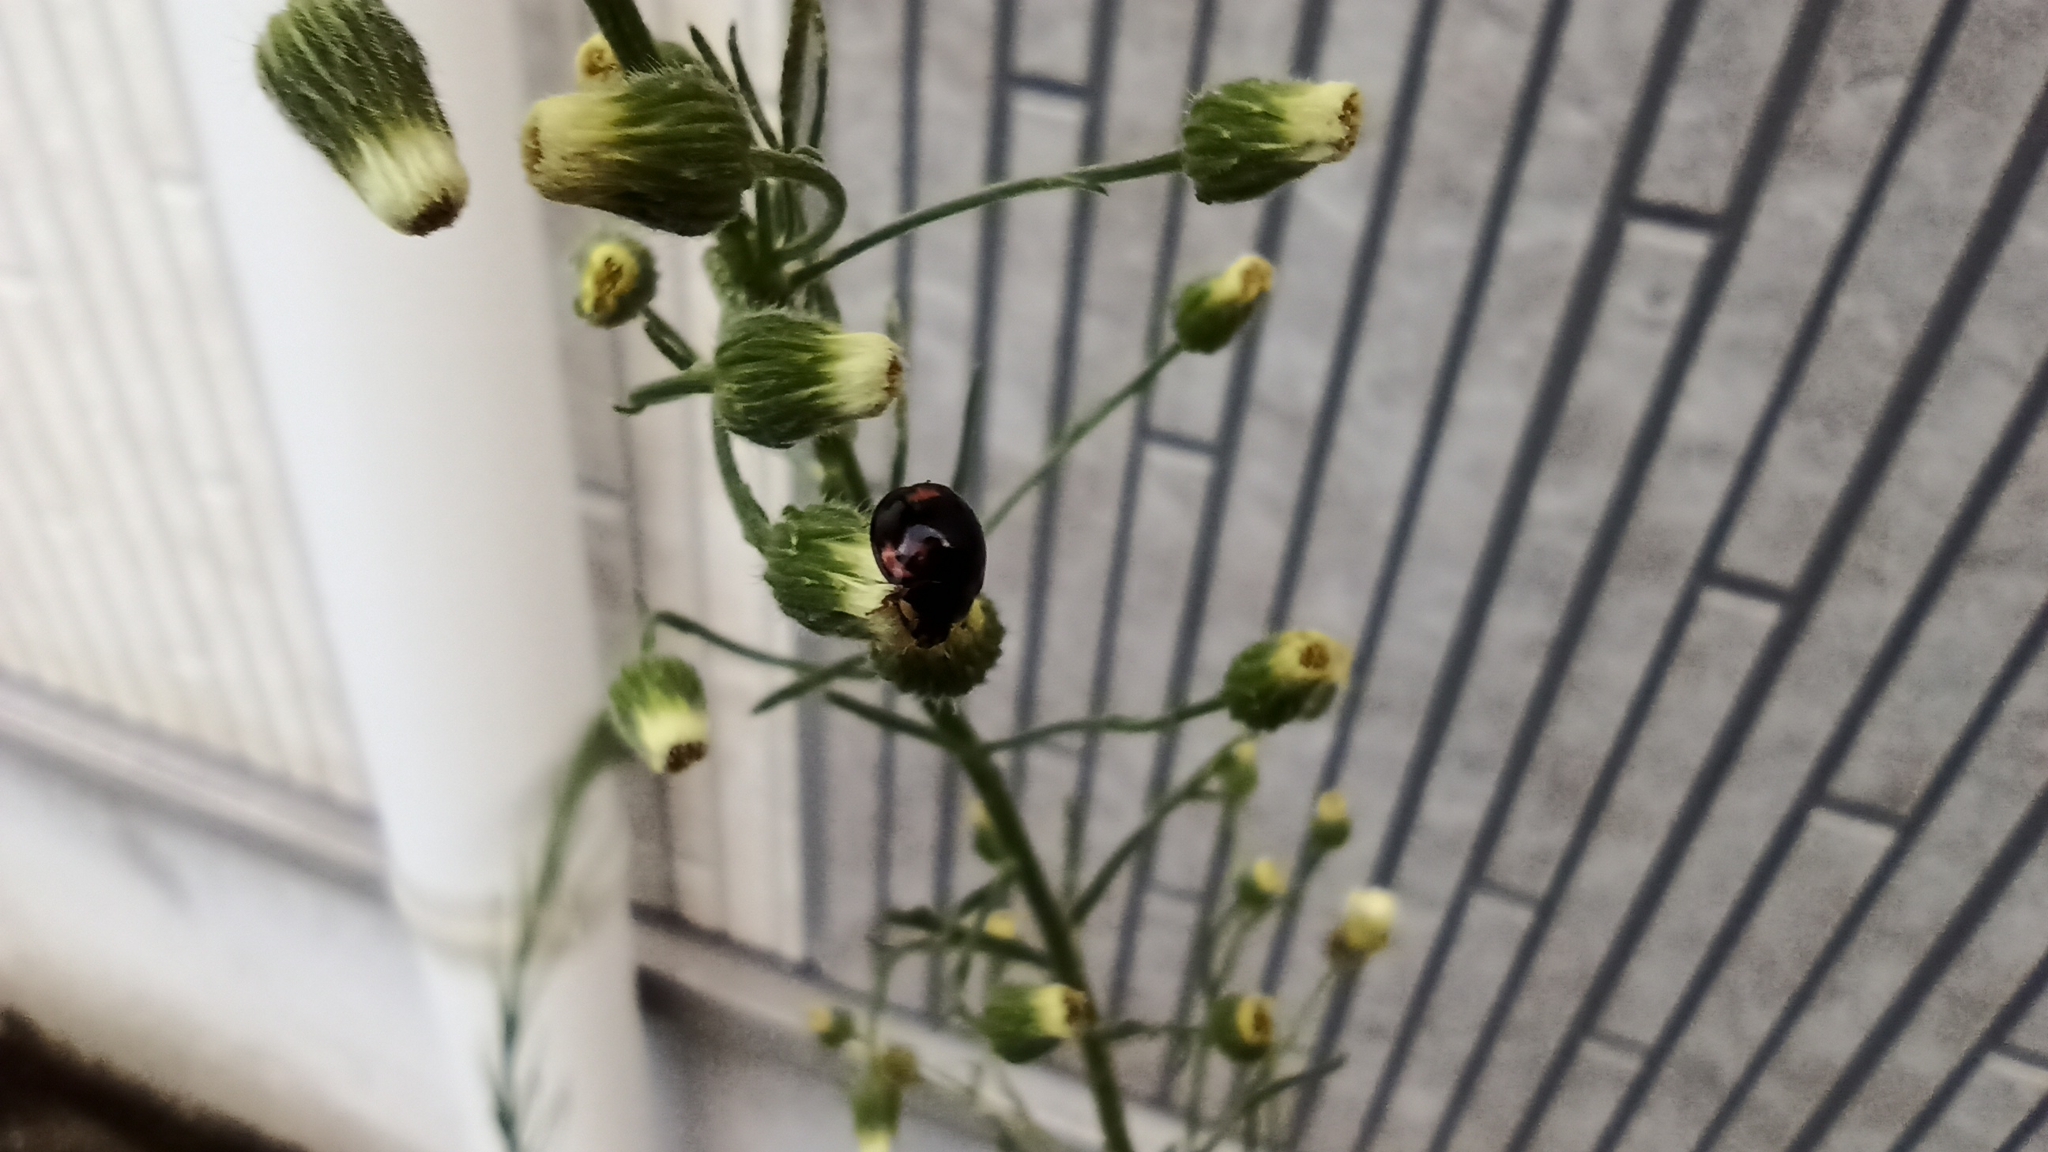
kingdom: Animalia
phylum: Arthropoda
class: Insecta
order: Coleoptera
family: Coccinellidae
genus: Cheilomenes
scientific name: Cheilomenes sexmaculata
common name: Ladybird beetle
